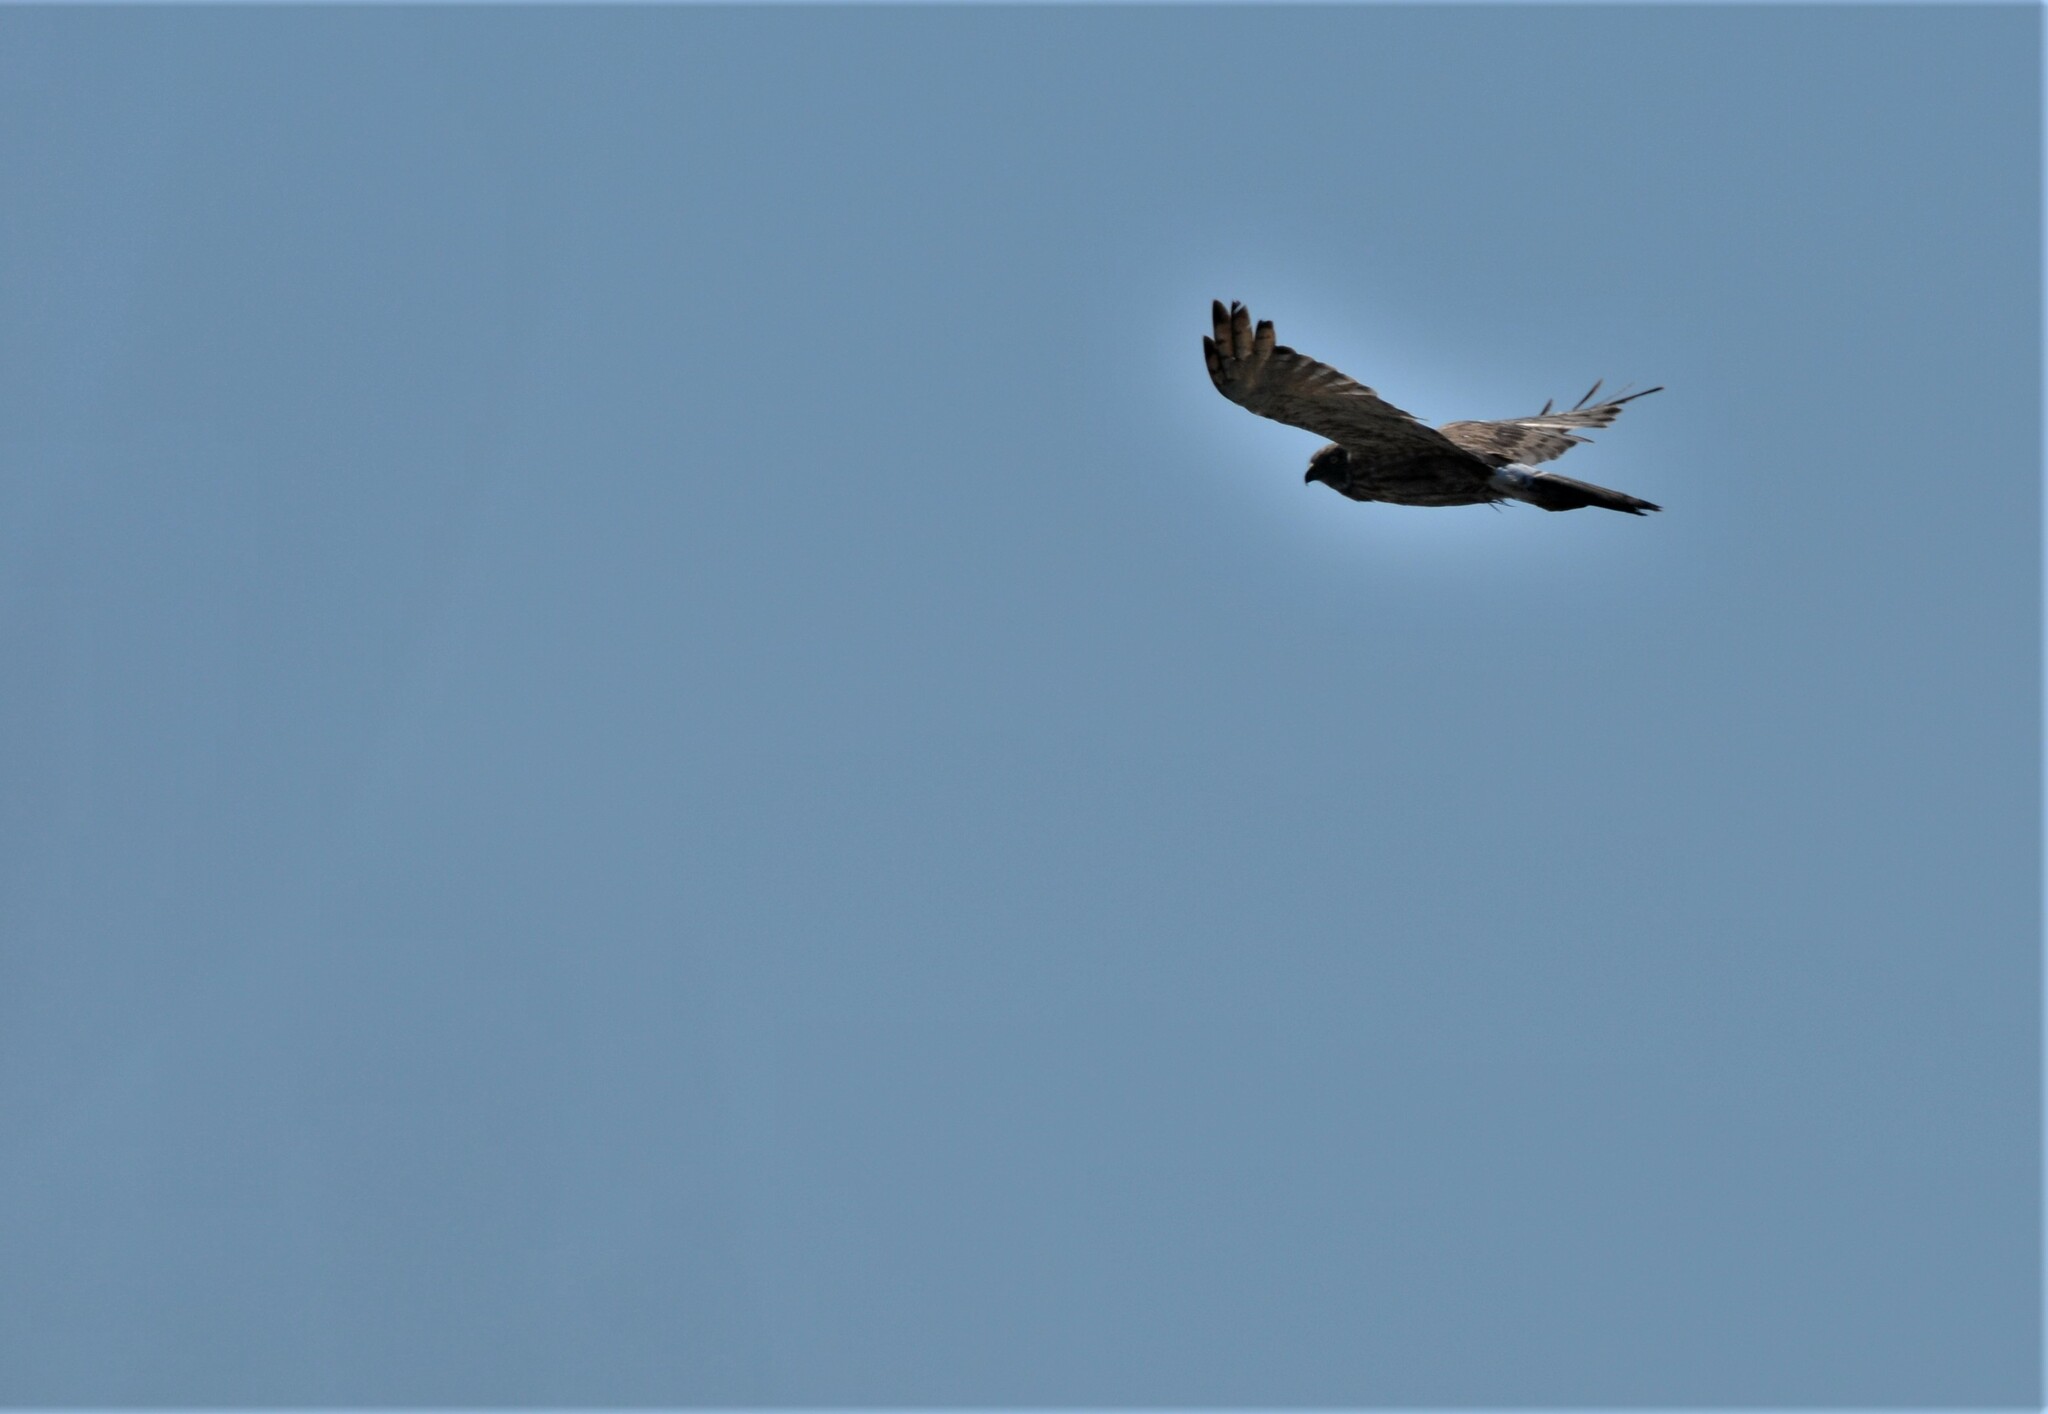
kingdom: Animalia
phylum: Chordata
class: Aves
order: Accipitriformes
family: Accipitridae
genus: Circus
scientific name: Circus approximans
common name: Swamp harrier
